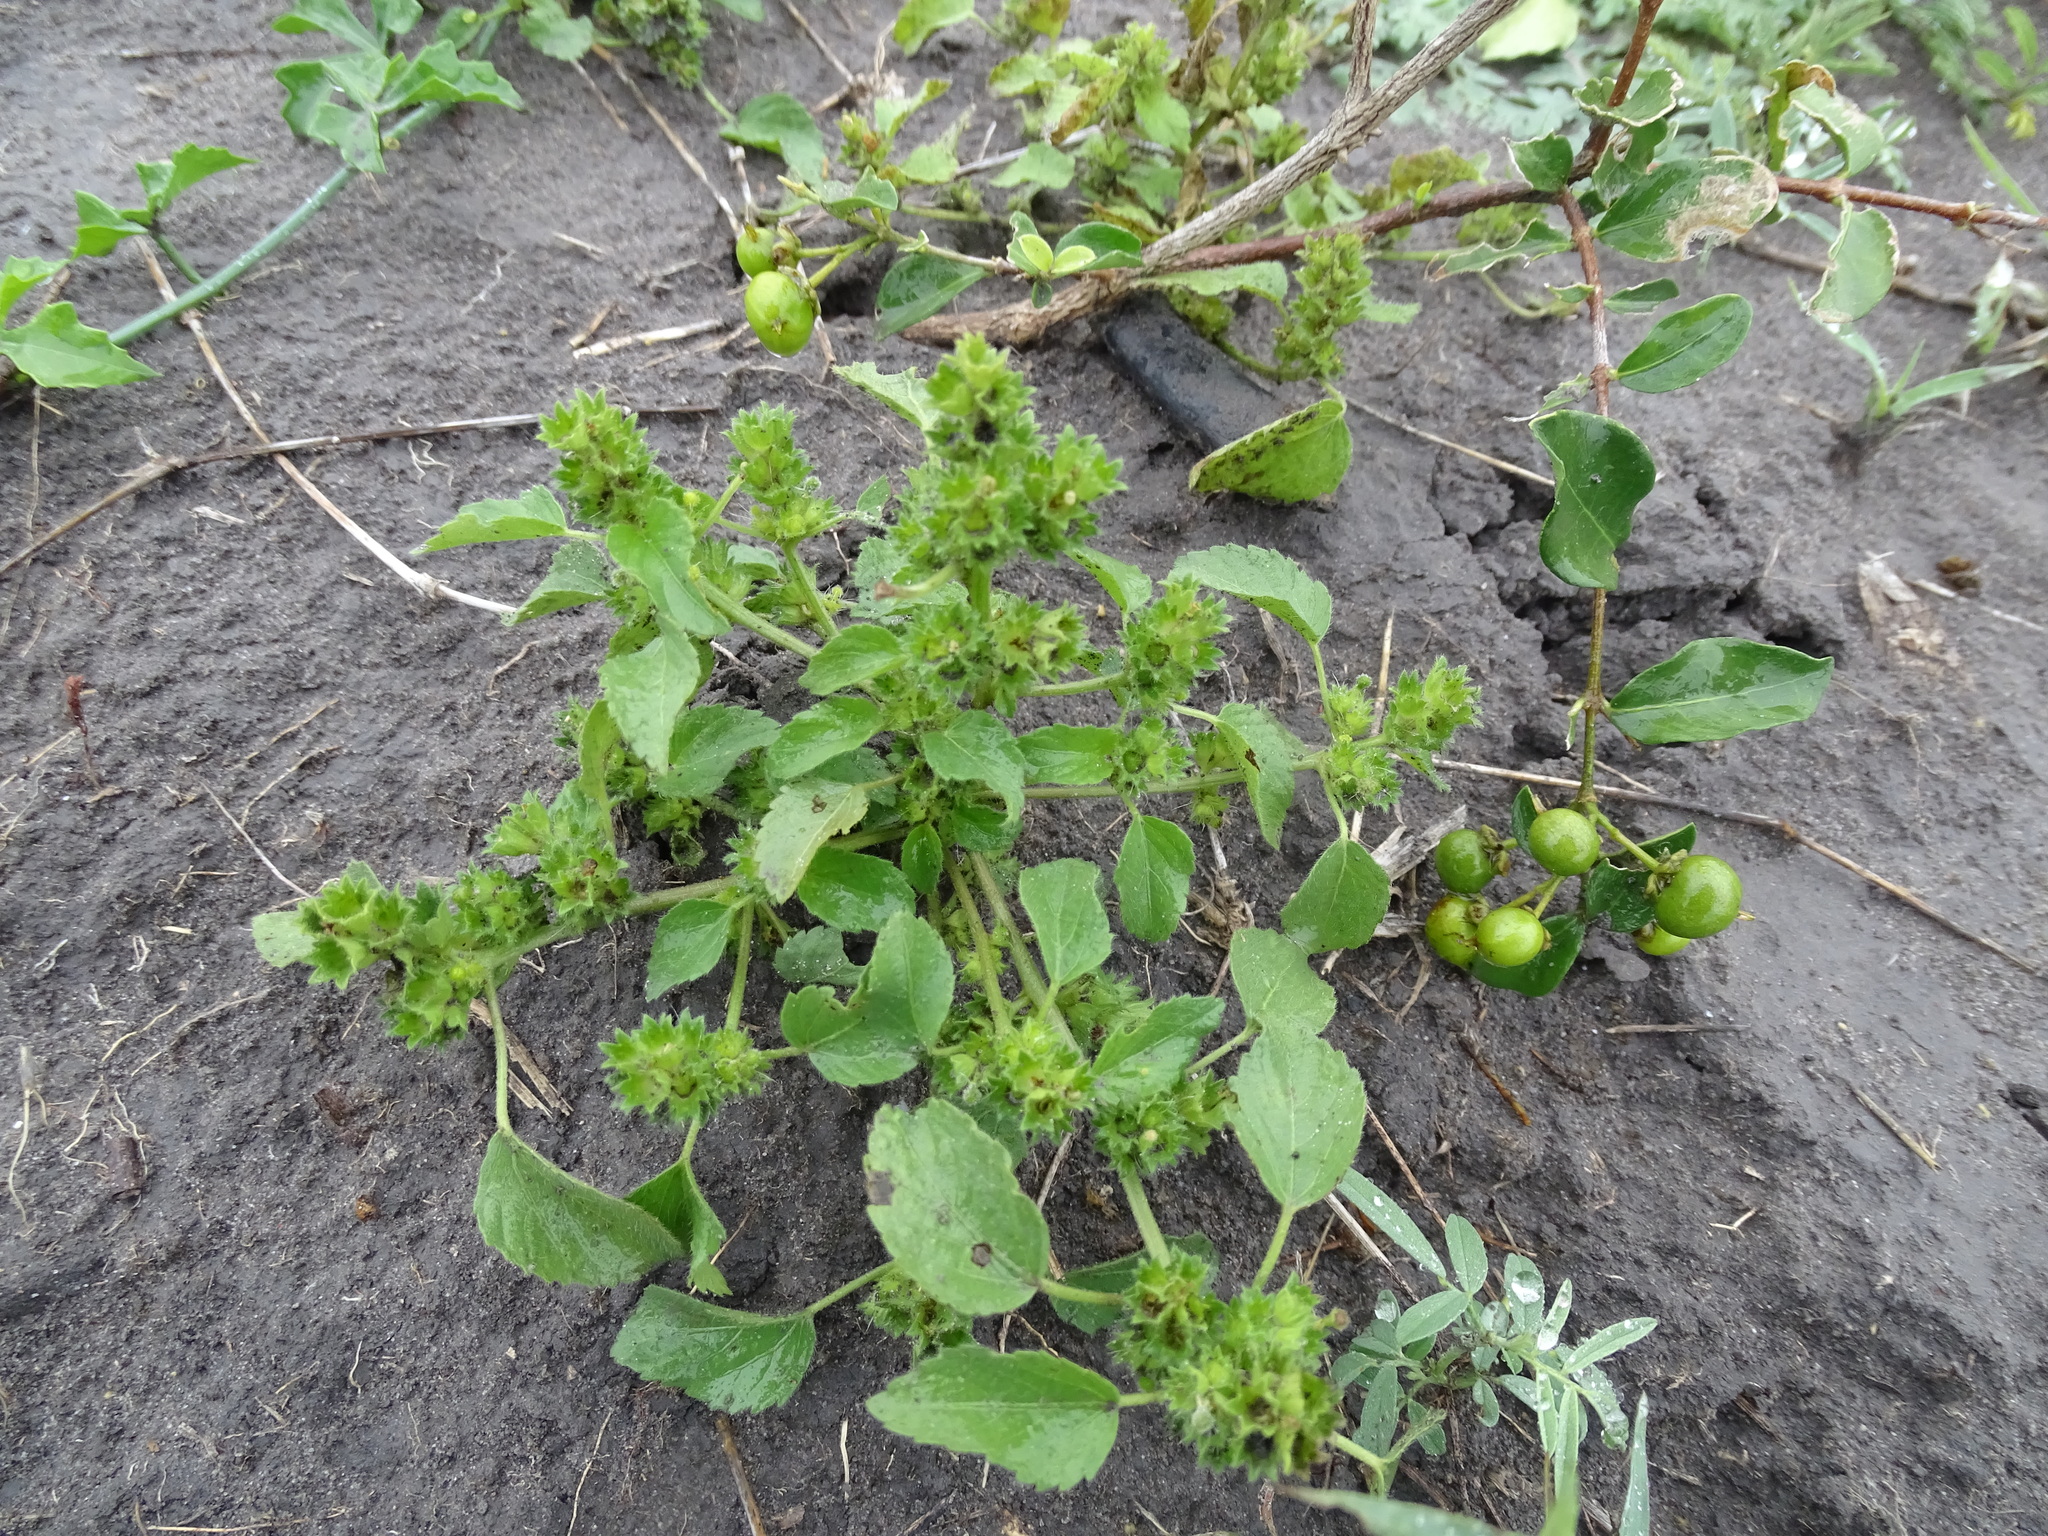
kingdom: Plantae
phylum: Tracheophyta
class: Magnoliopsida
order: Malpighiales
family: Euphorbiaceae
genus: Acalypha
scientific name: Acalypha poiretii
